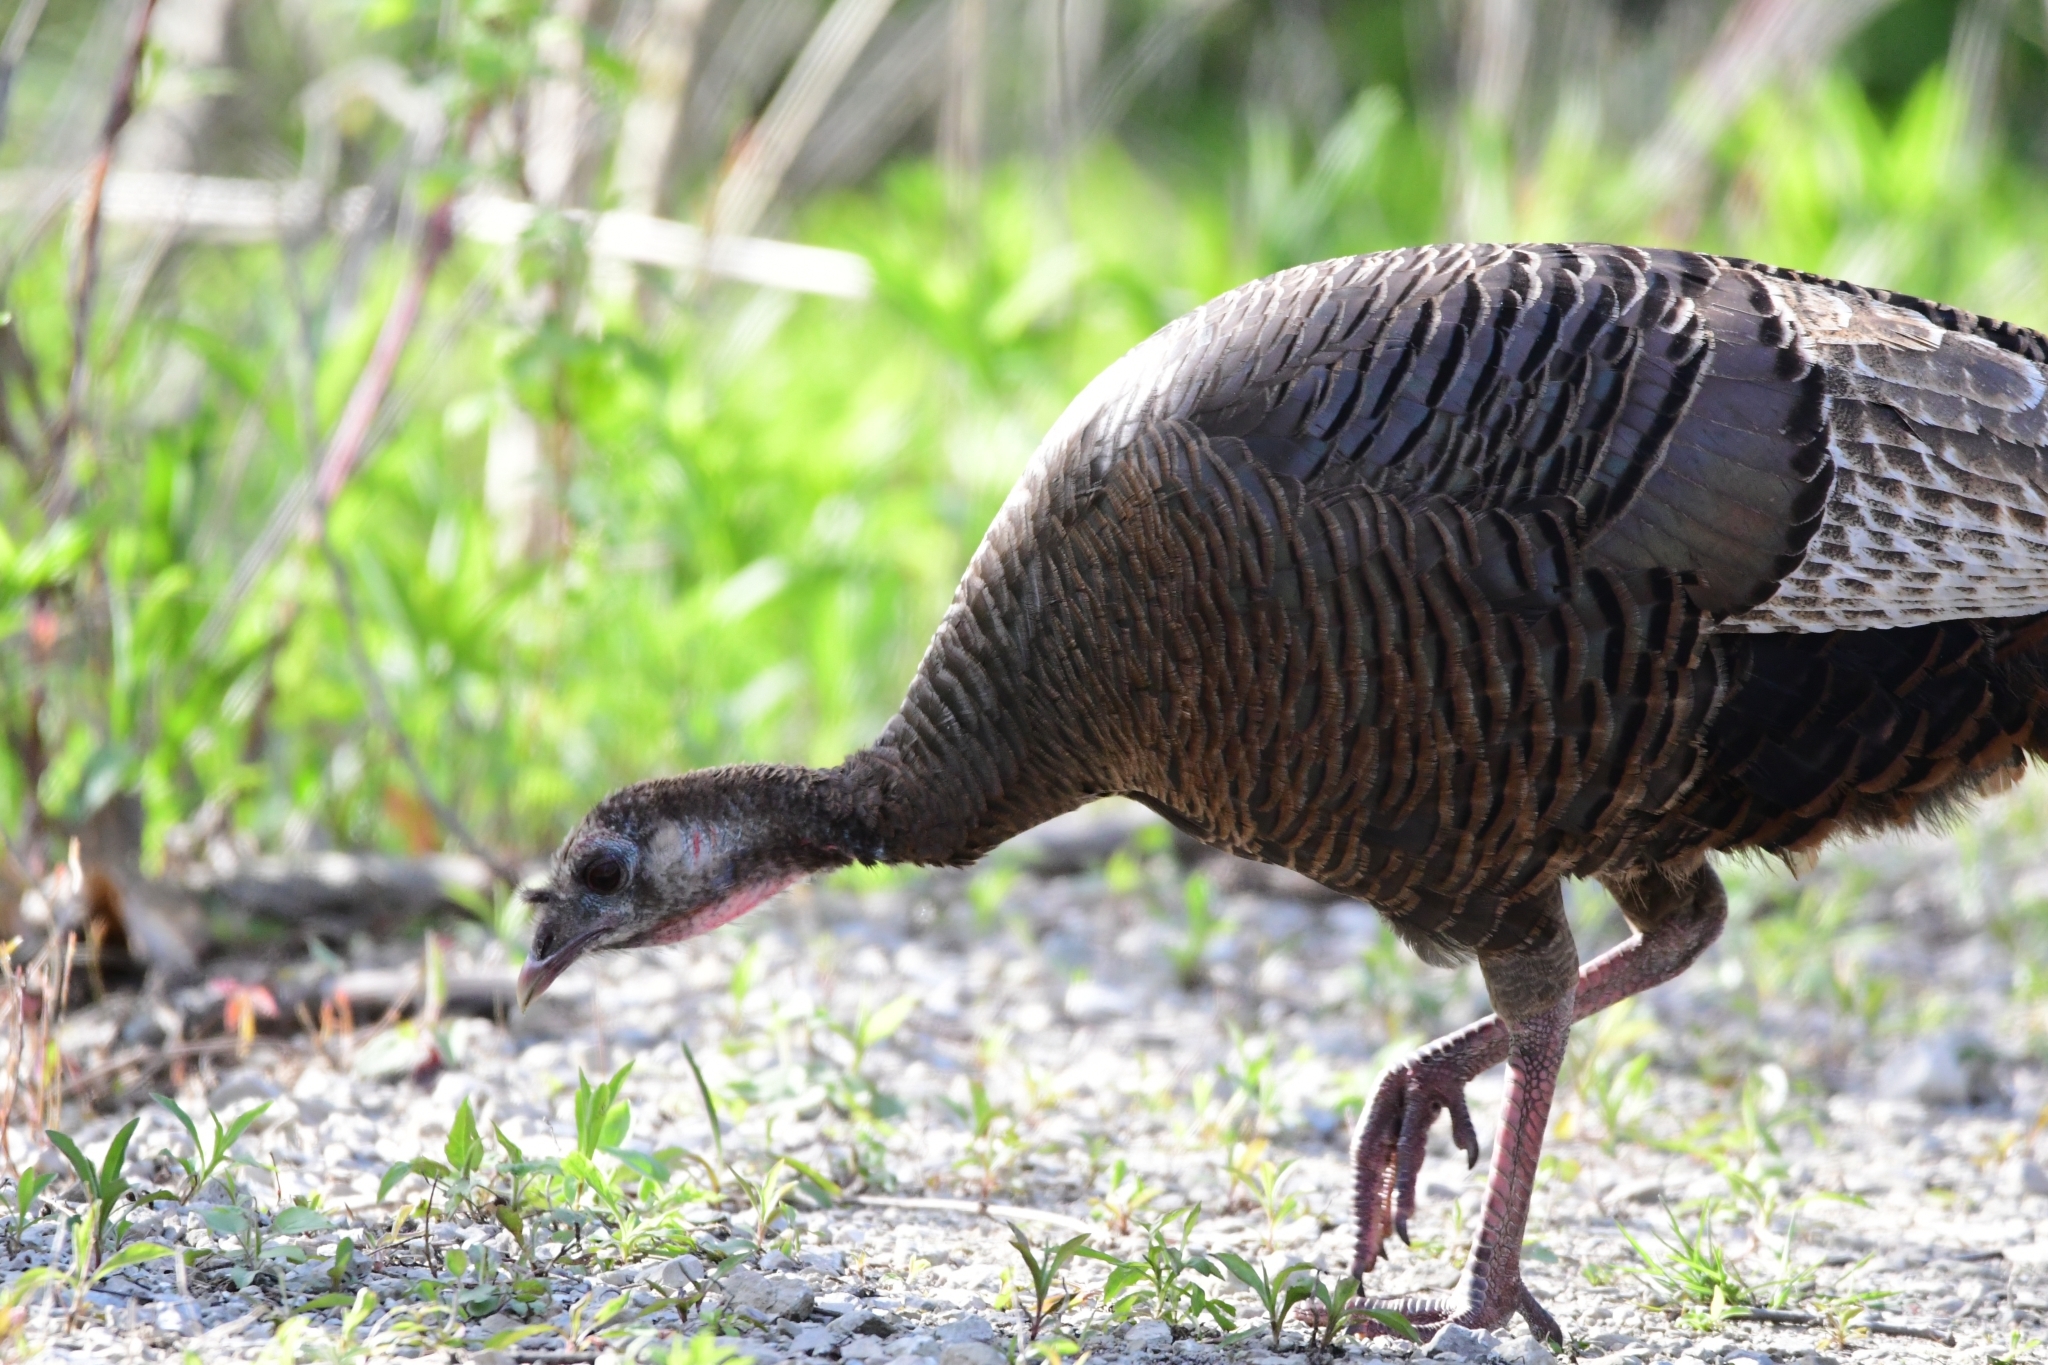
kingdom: Animalia
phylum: Chordata
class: Aves
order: Galliformes
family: Phasianidae
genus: Meleagris
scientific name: Meleagris gallopavo
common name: Wild turkey
